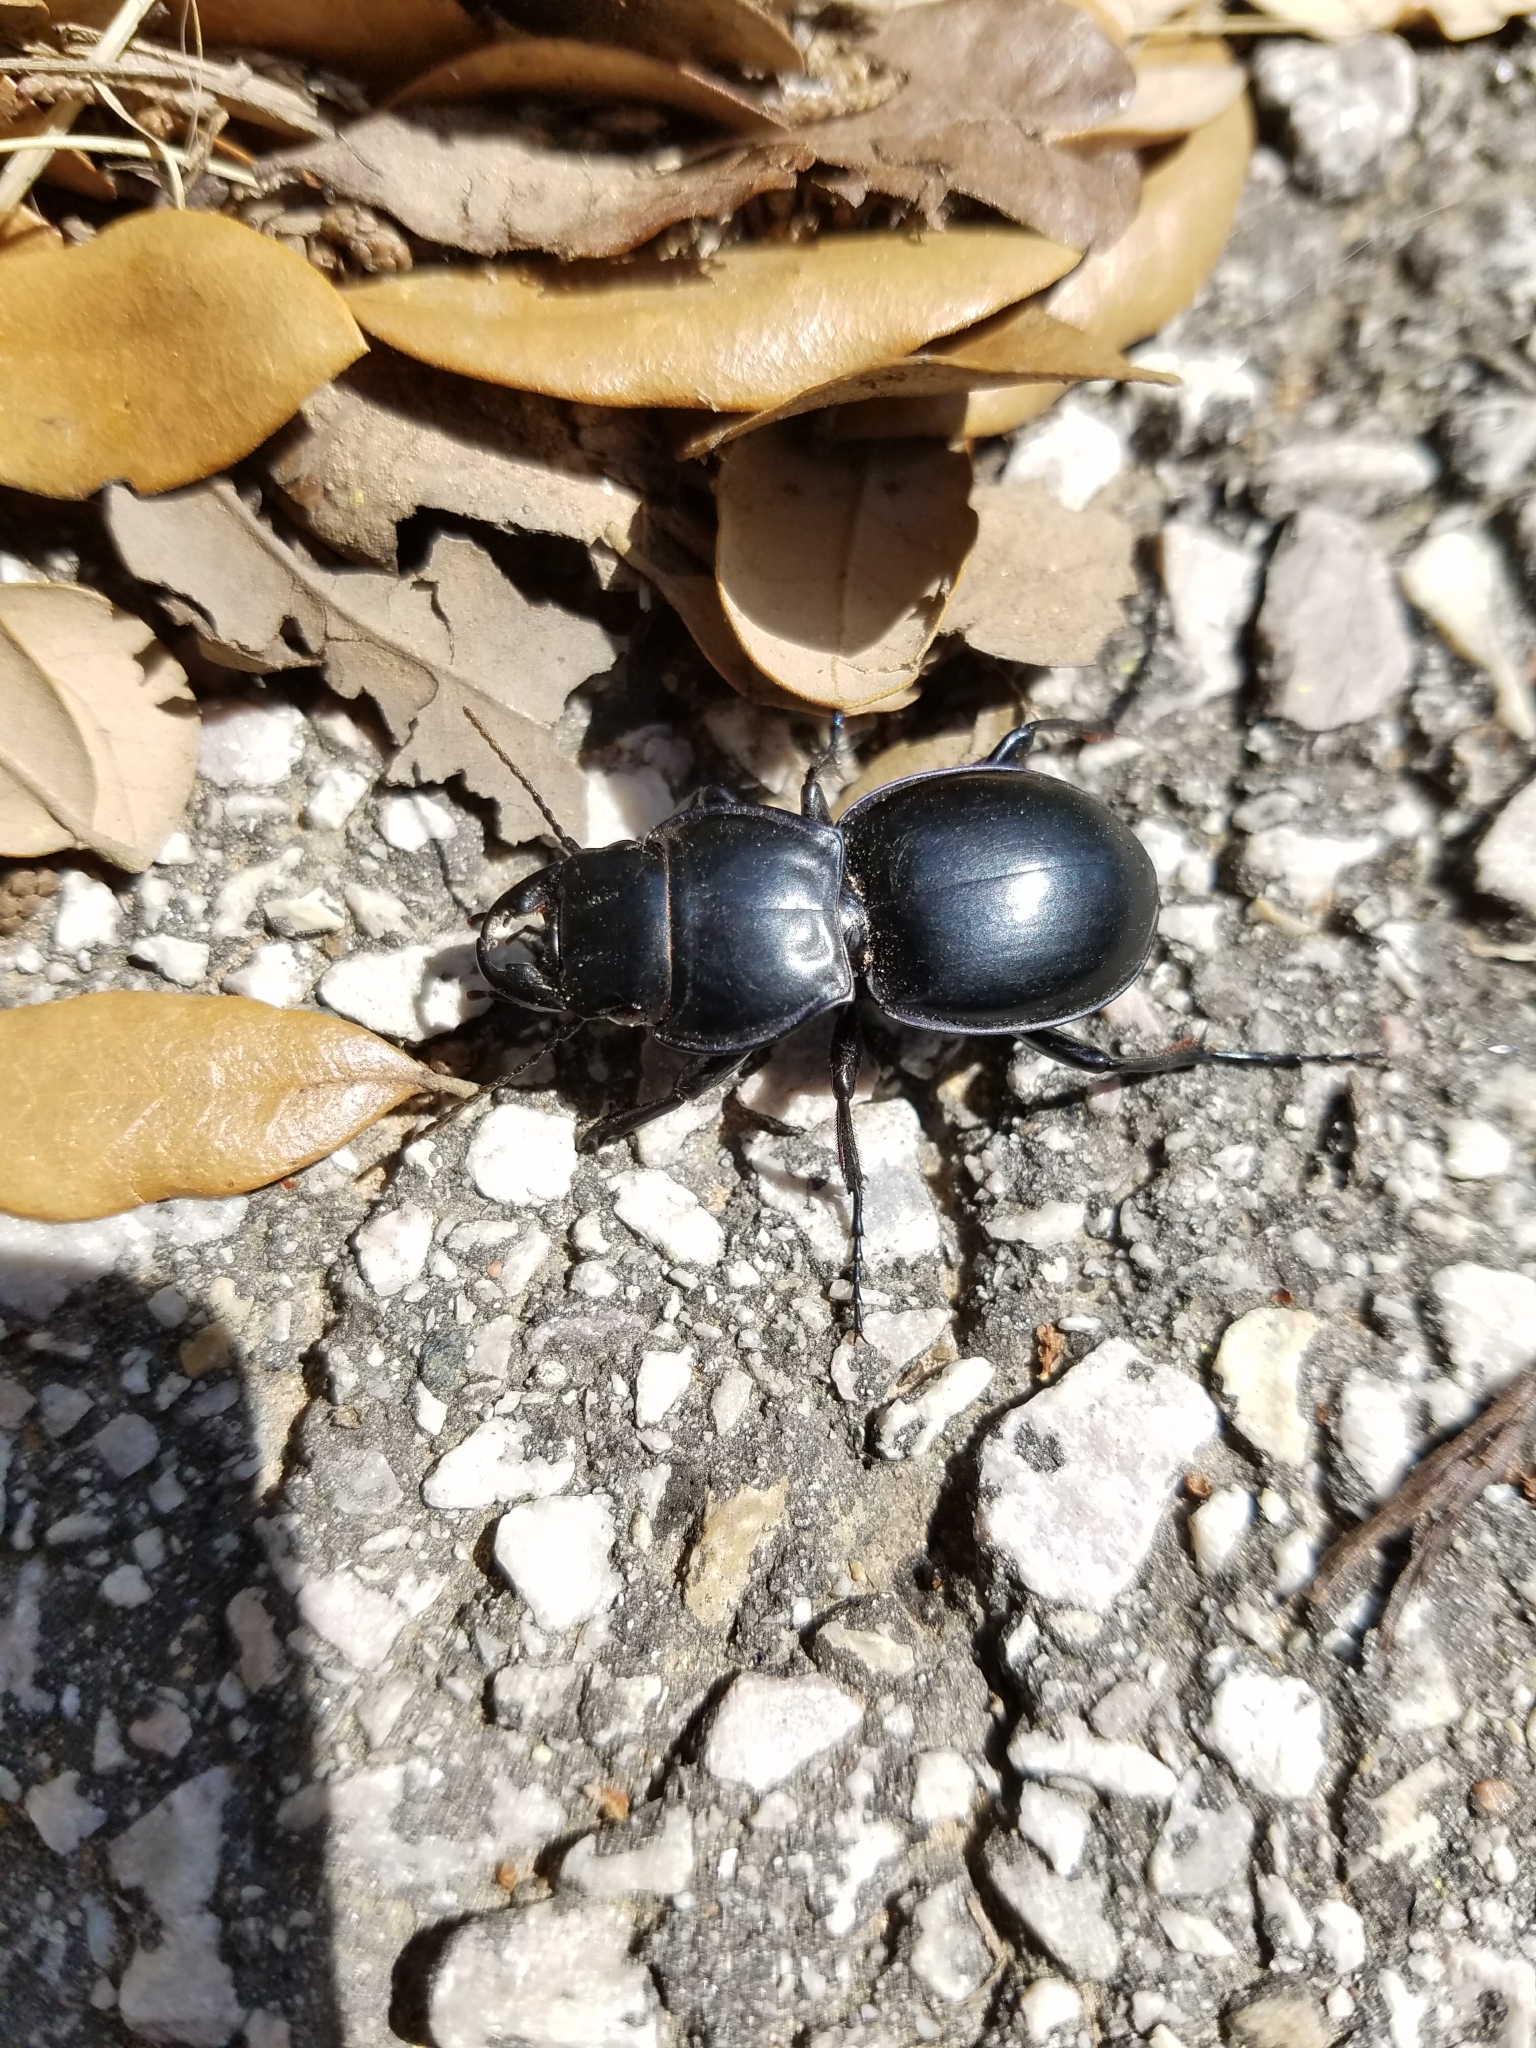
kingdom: Animalia
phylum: Arthropoda
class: Insecta
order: Coleoptera
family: Carabidae
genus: Pasimachus
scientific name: Pasimachus californicus
